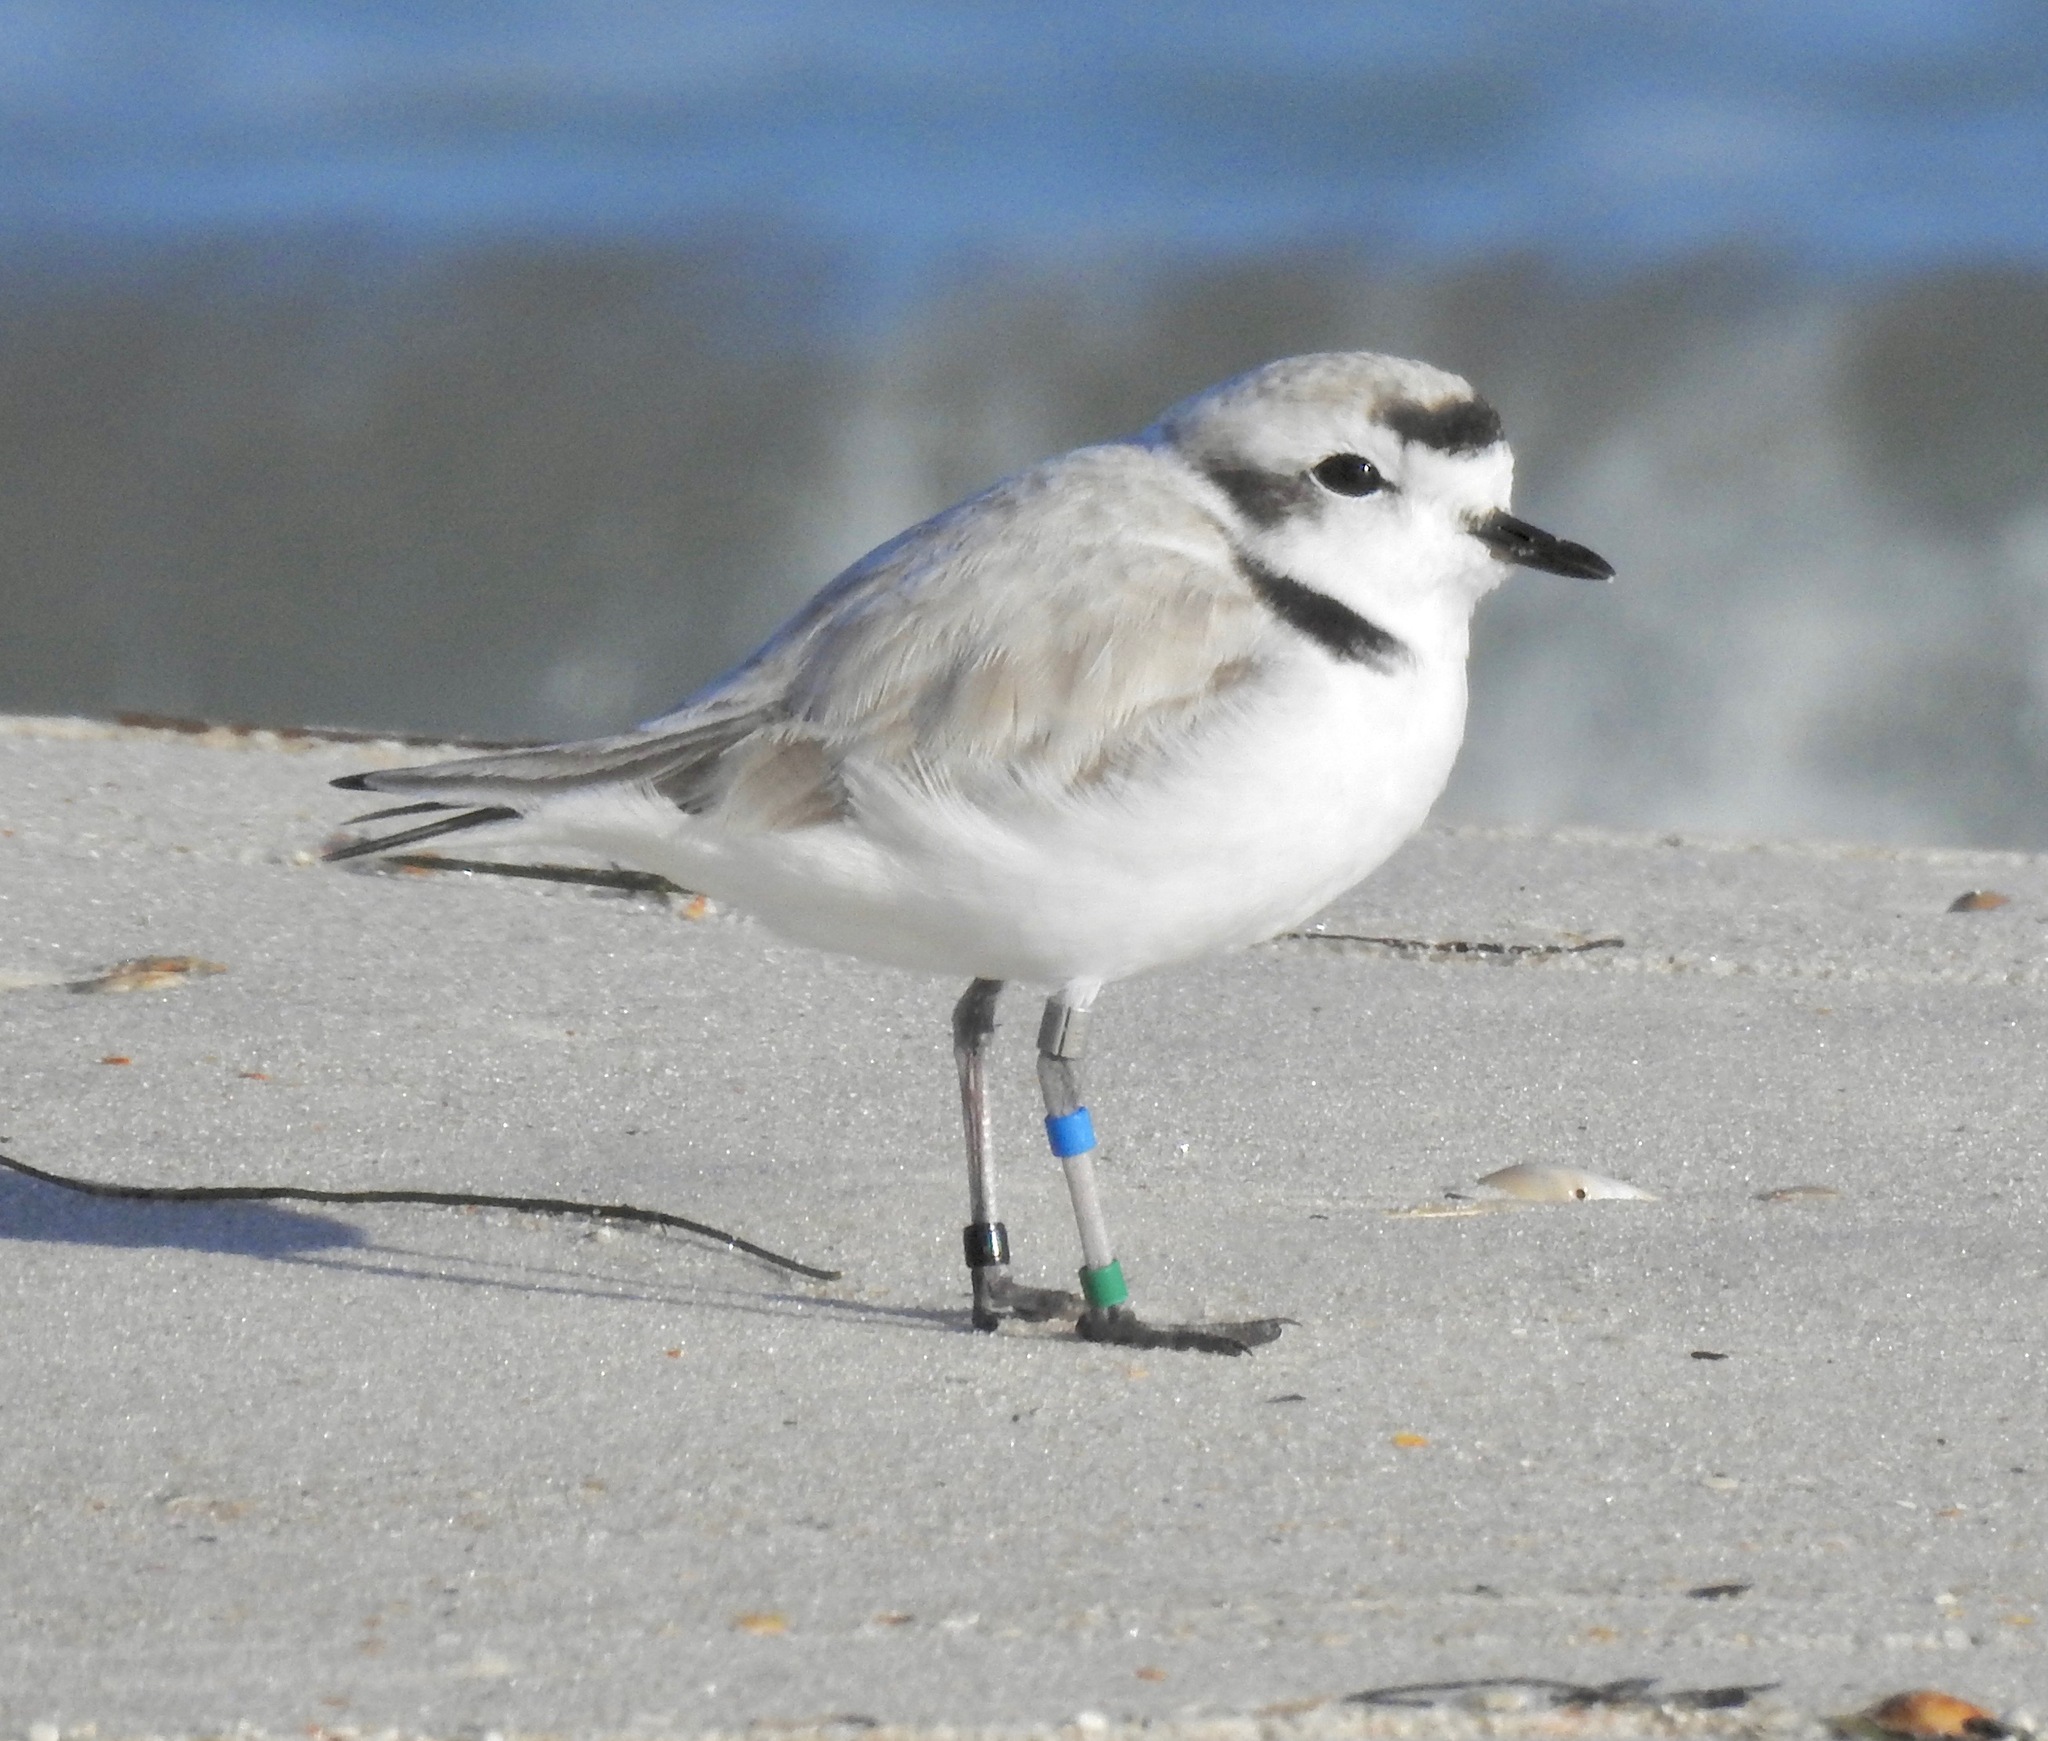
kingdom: Animalia
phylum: Chordata
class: Aves
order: Charadriiformes
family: Charadriidae
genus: Anarhynchus
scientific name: Anarhynchus
